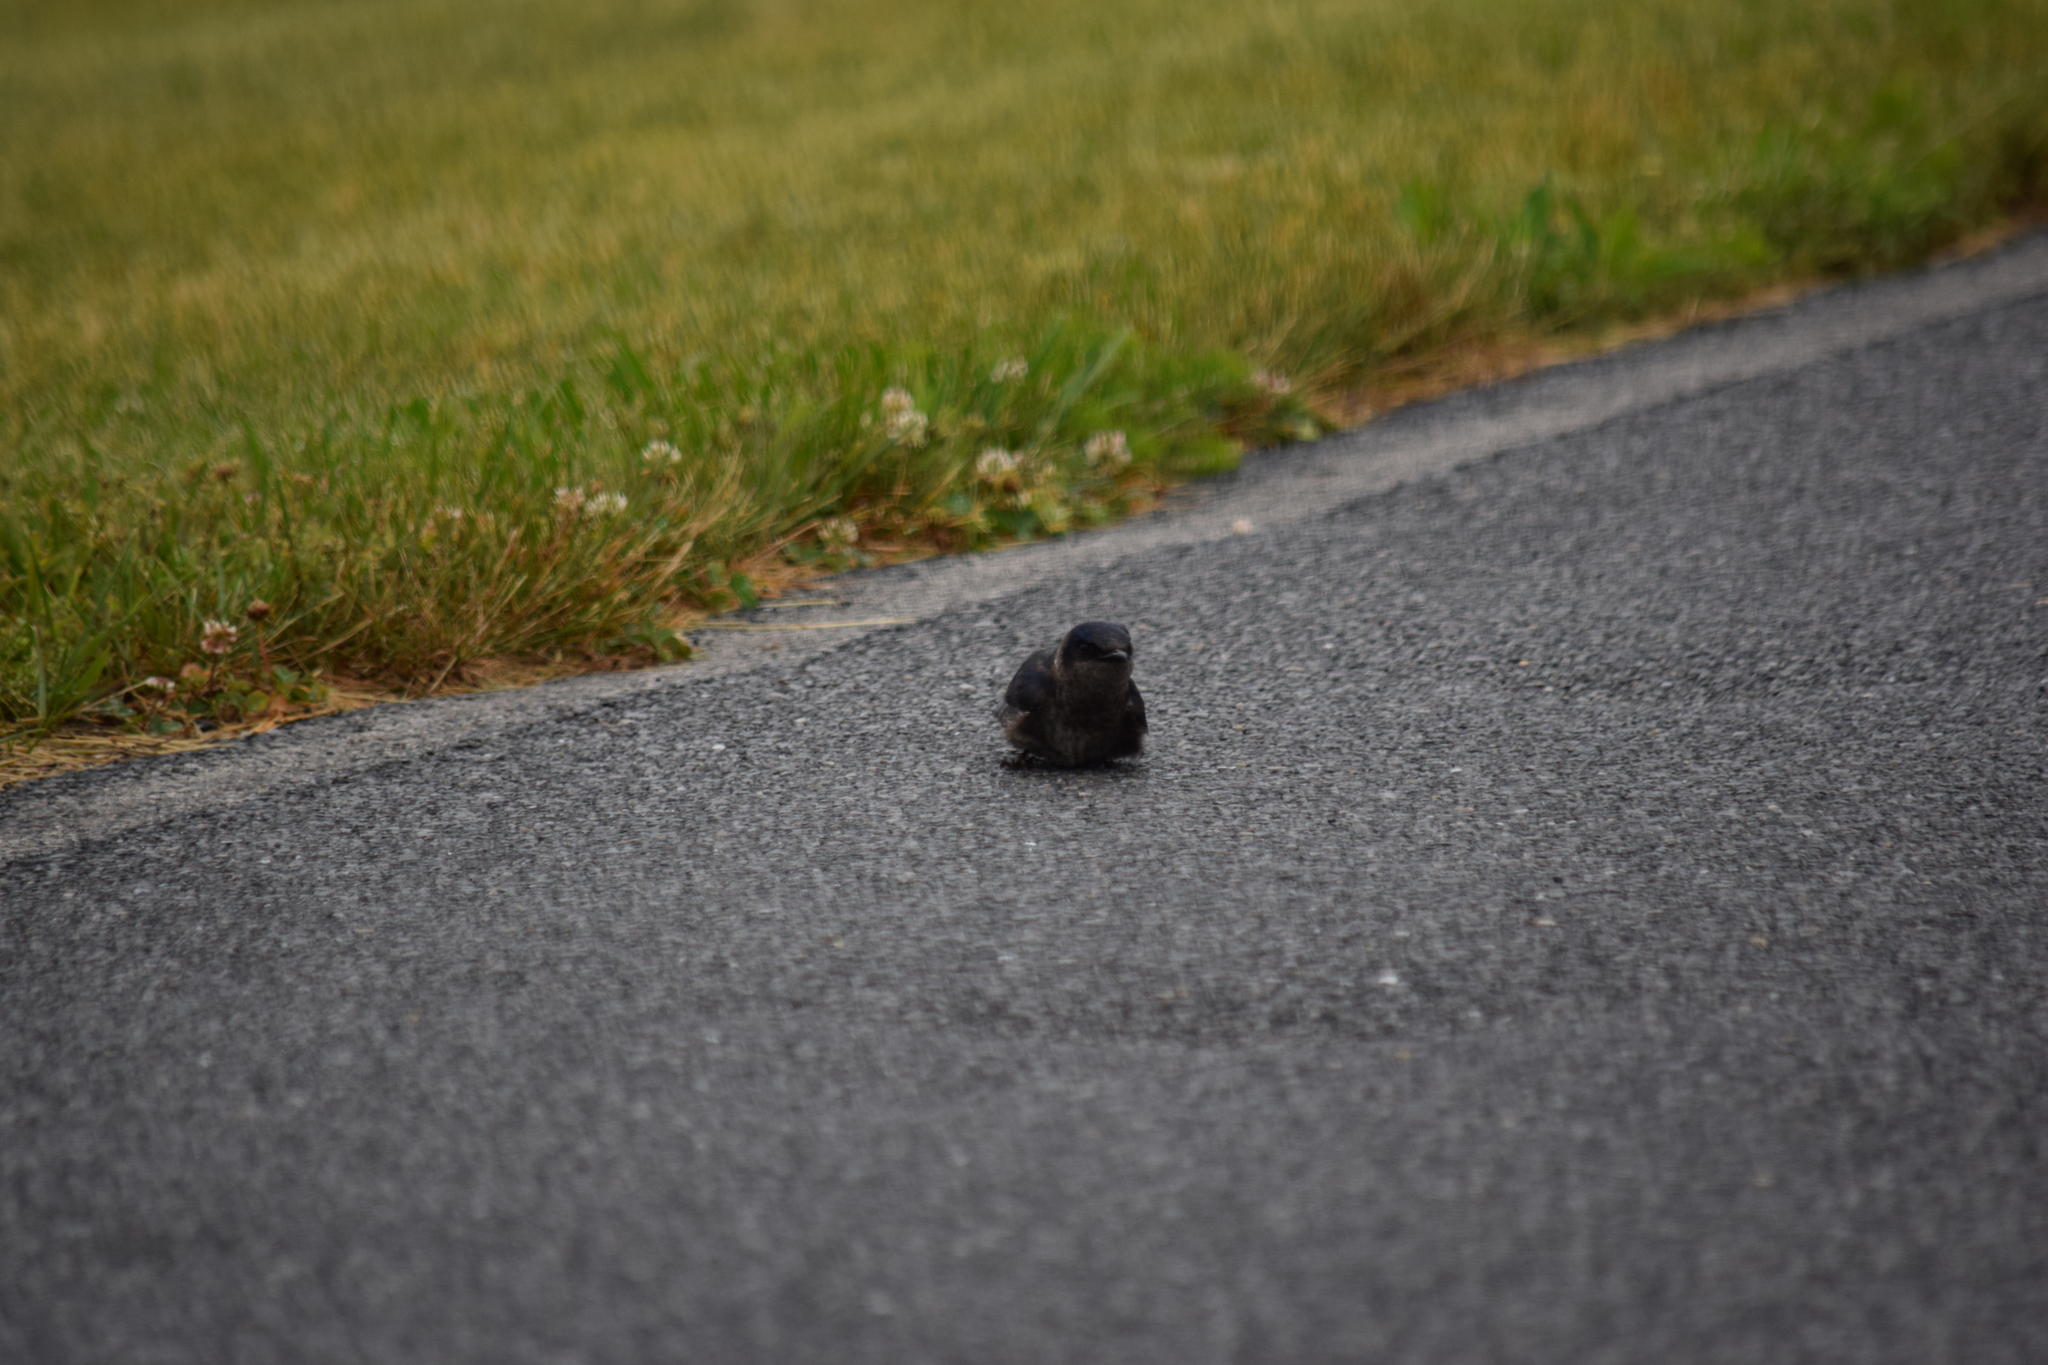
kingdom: Animalia
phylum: Chordata
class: Aves
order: Passeriformes
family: Hirundinidae
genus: Progne
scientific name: Progne subis
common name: Purple martin
